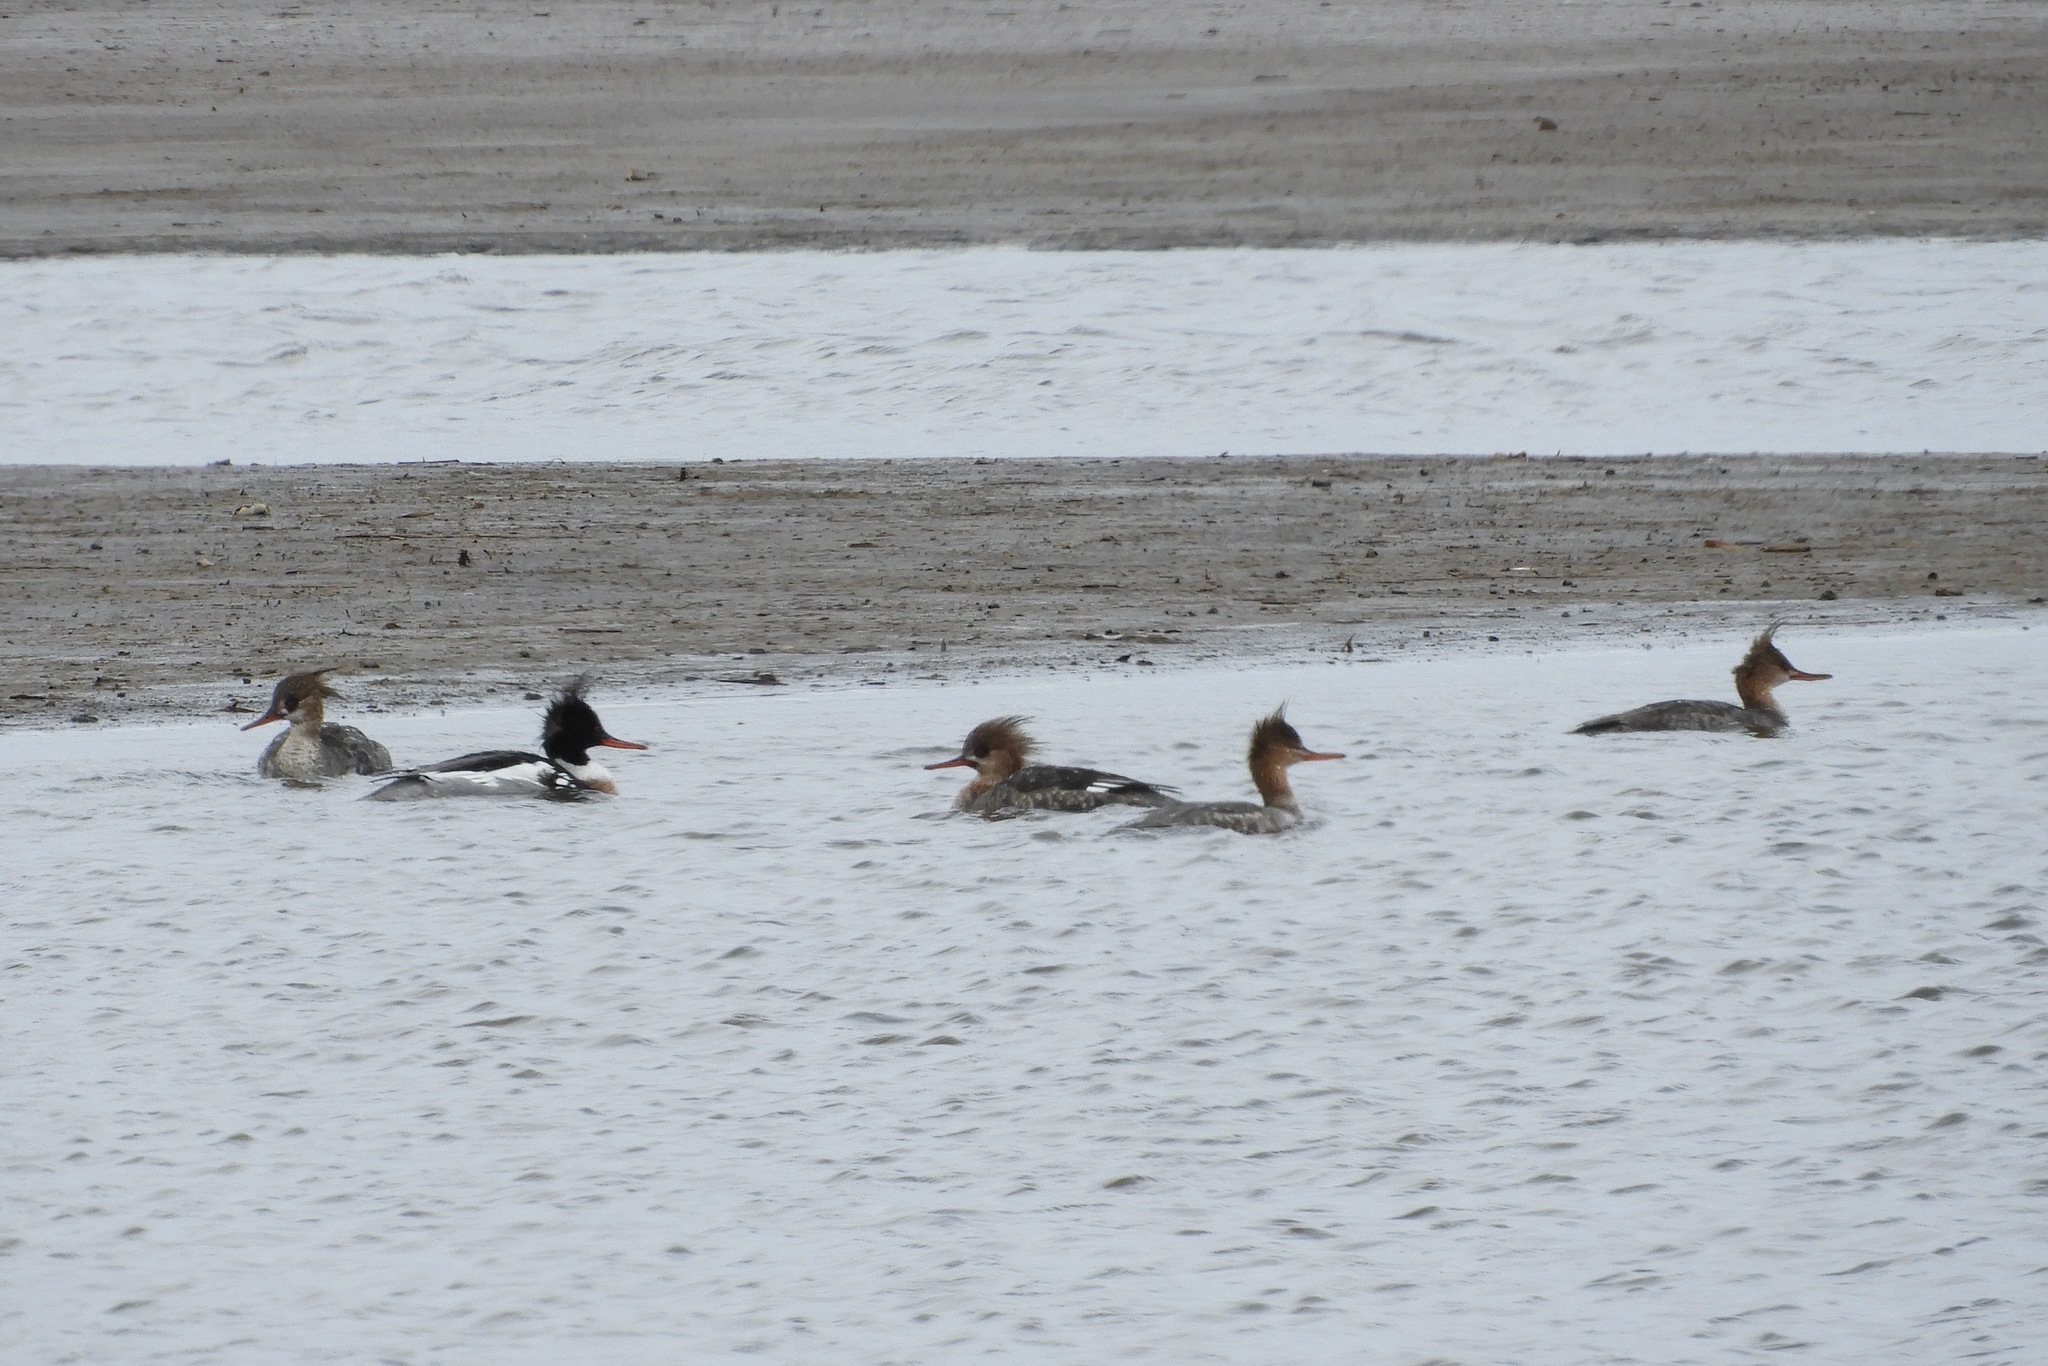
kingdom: Animalia
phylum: Chordata
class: Aves
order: Anseriformes
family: Anatidae
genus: Mergus
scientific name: Mergus serrator
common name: Red-breasted merganser
